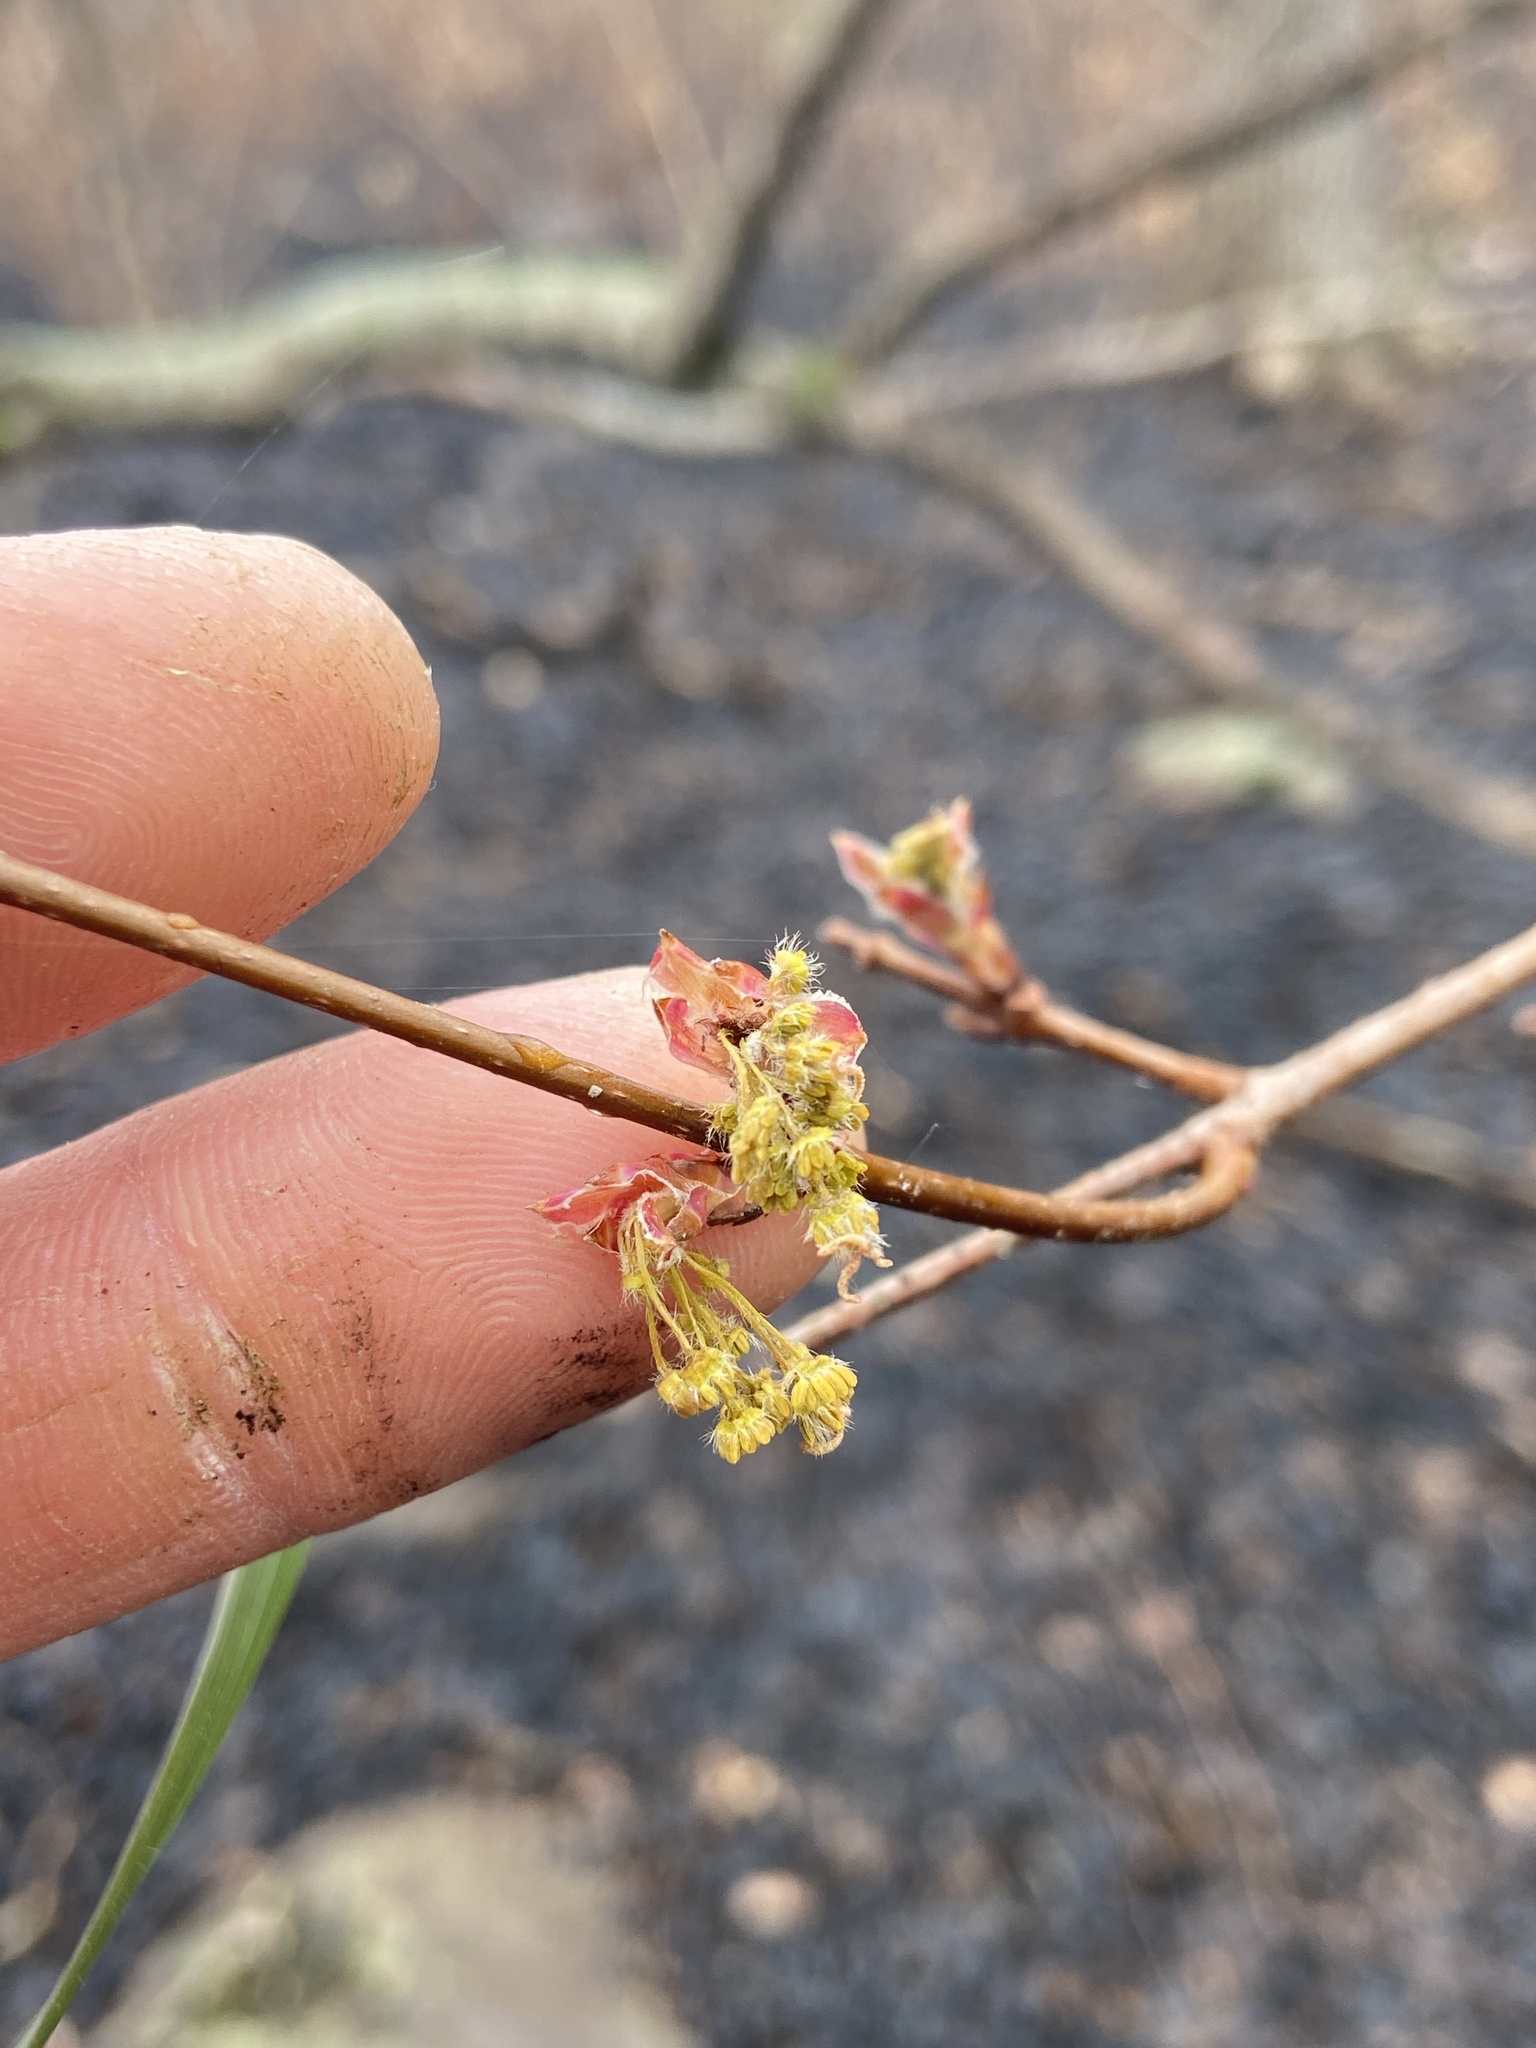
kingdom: Plantae
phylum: Tracheophyta
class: Magnoliopsida
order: Sapindales
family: Sapindaceae
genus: Acer
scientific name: Acer floridanum
